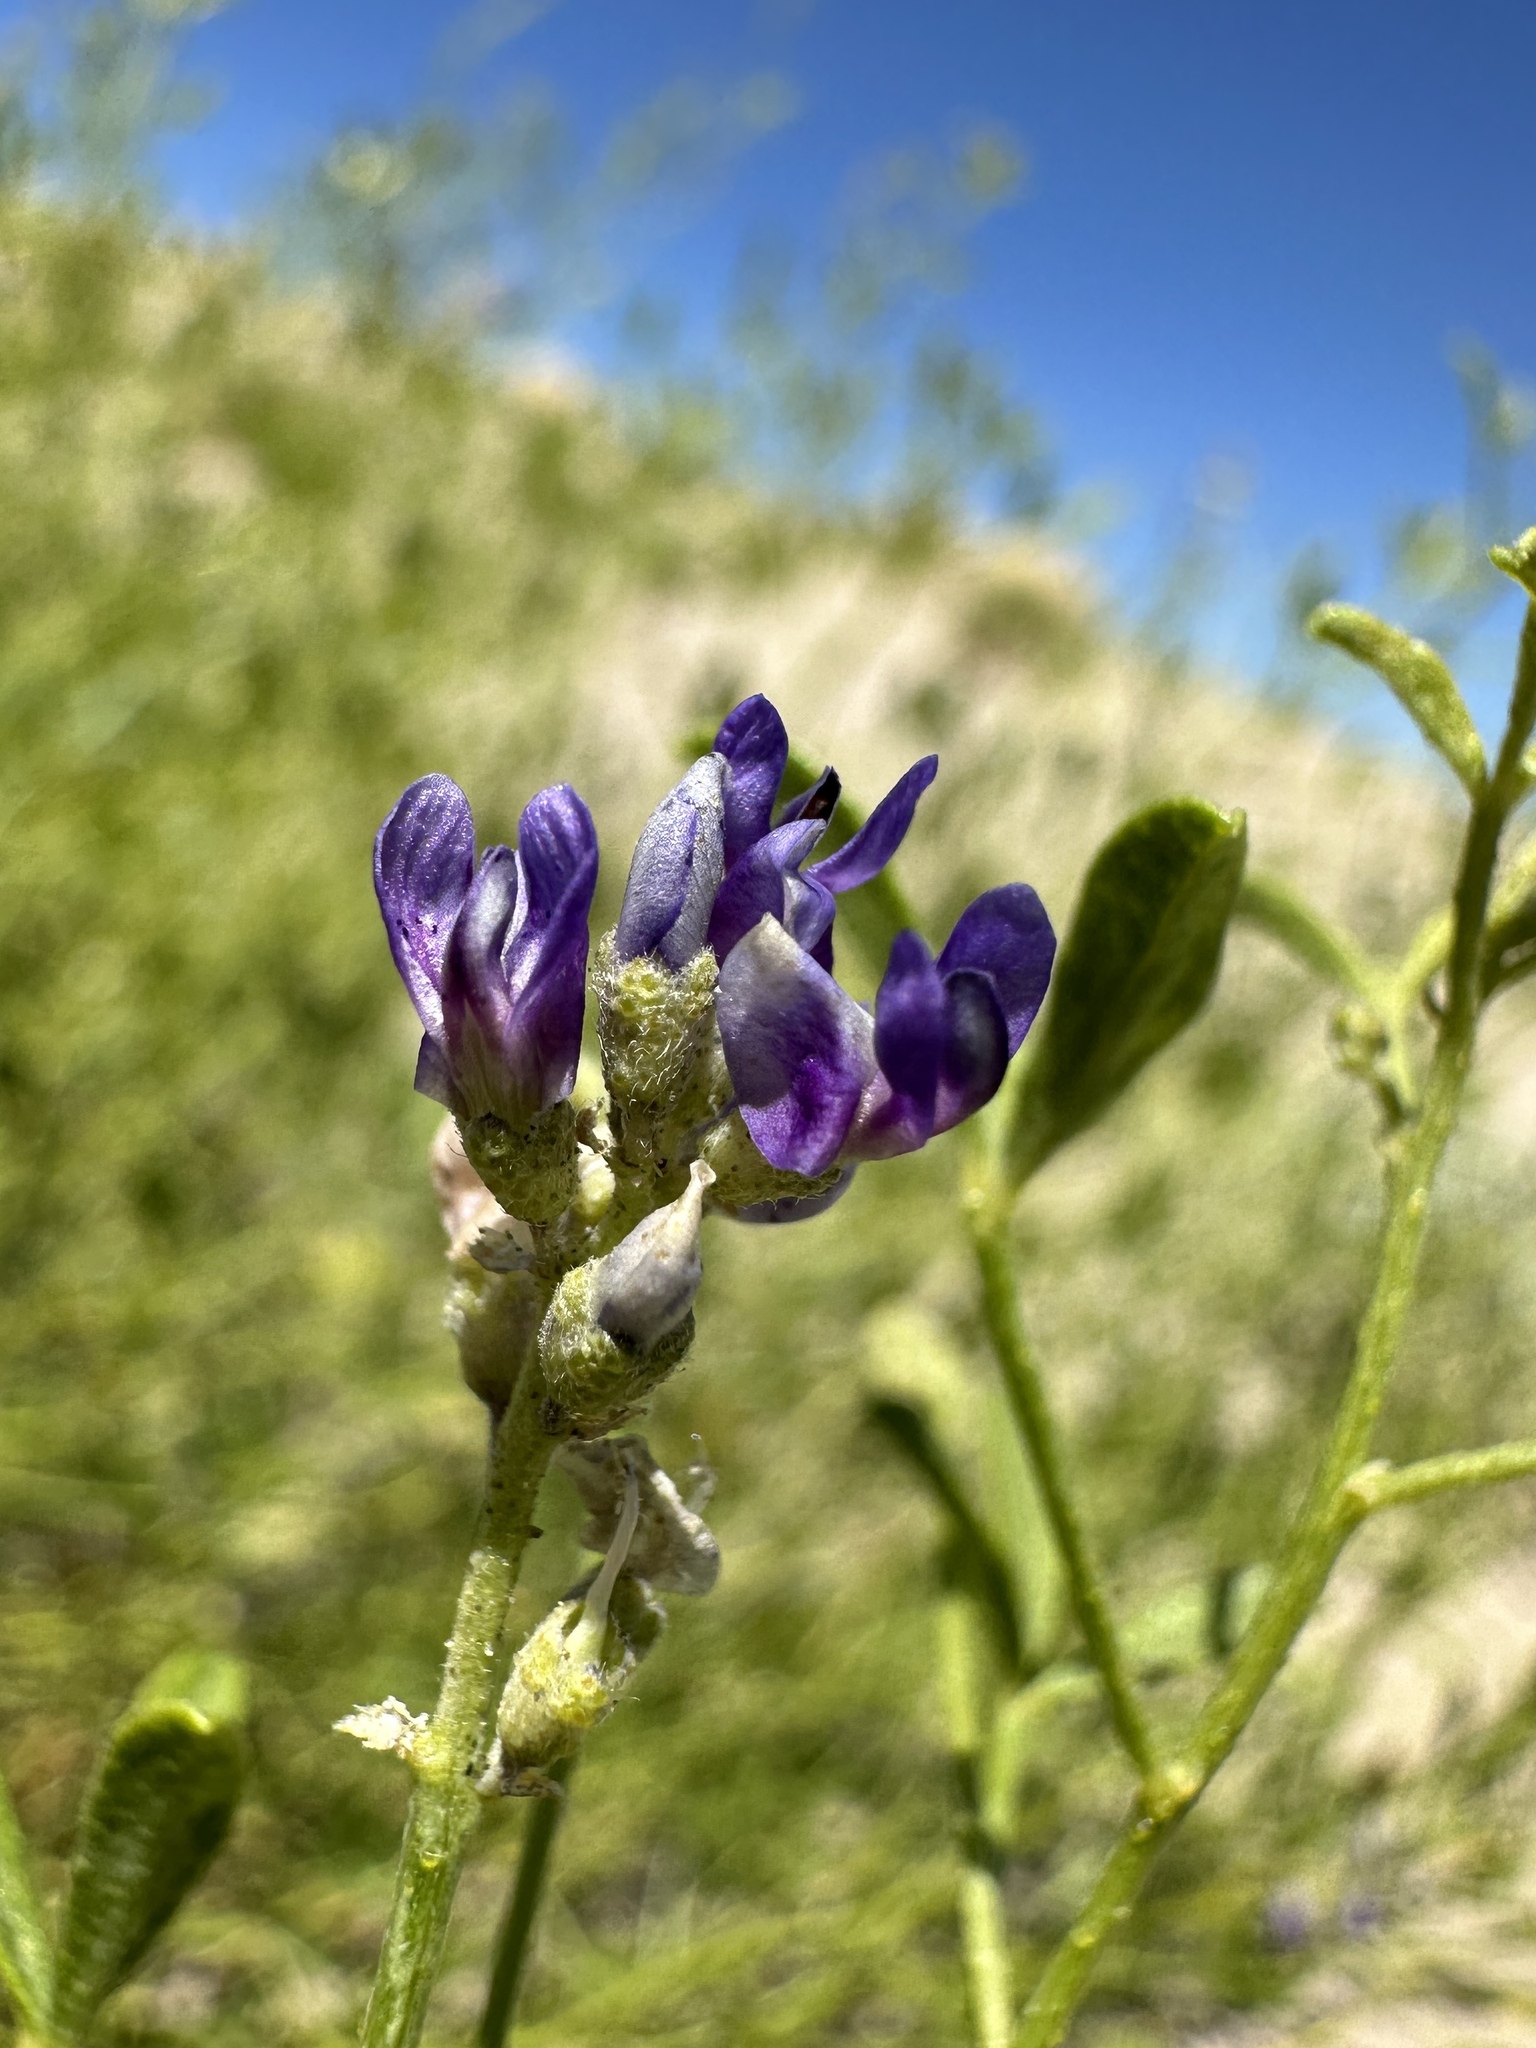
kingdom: Plantae
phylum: Tracheophyta
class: Magnoliopsida
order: Fabales
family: Fabaceae
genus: Ladeania
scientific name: Ladeania lanceolata
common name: Dune scurf-pea
